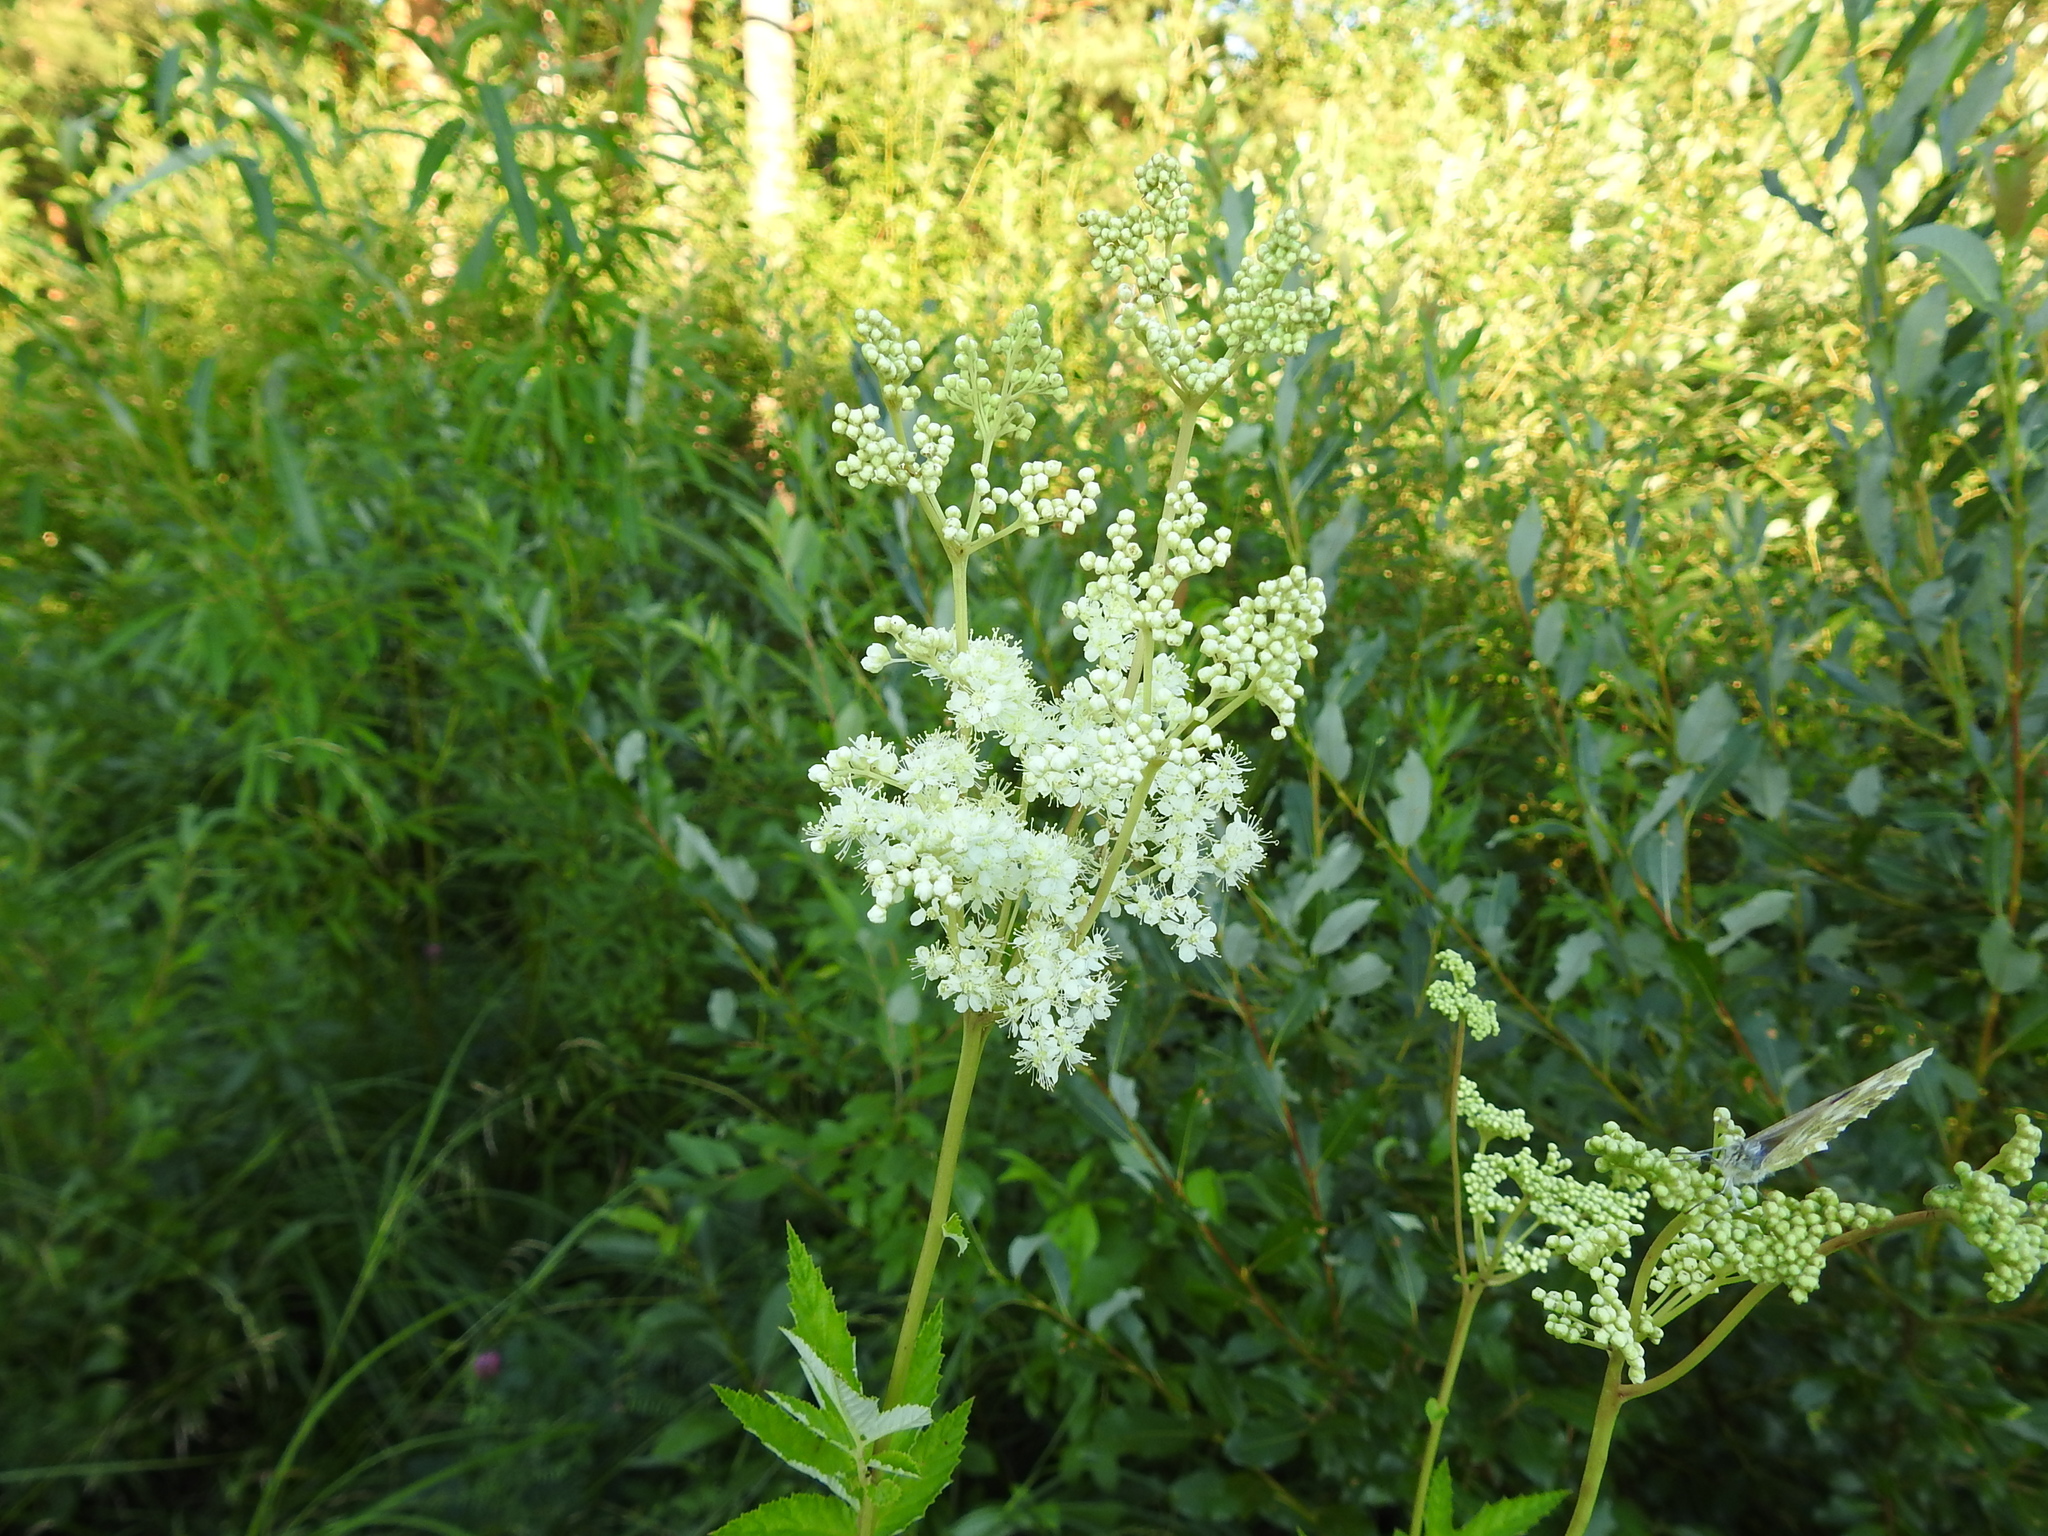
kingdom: Plantae
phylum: Tracheophyta
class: Magnoliopsida
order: Rosales
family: Rosaceae
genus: Filipendula
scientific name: Filipendula ulmaria
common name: Meadowsweet
